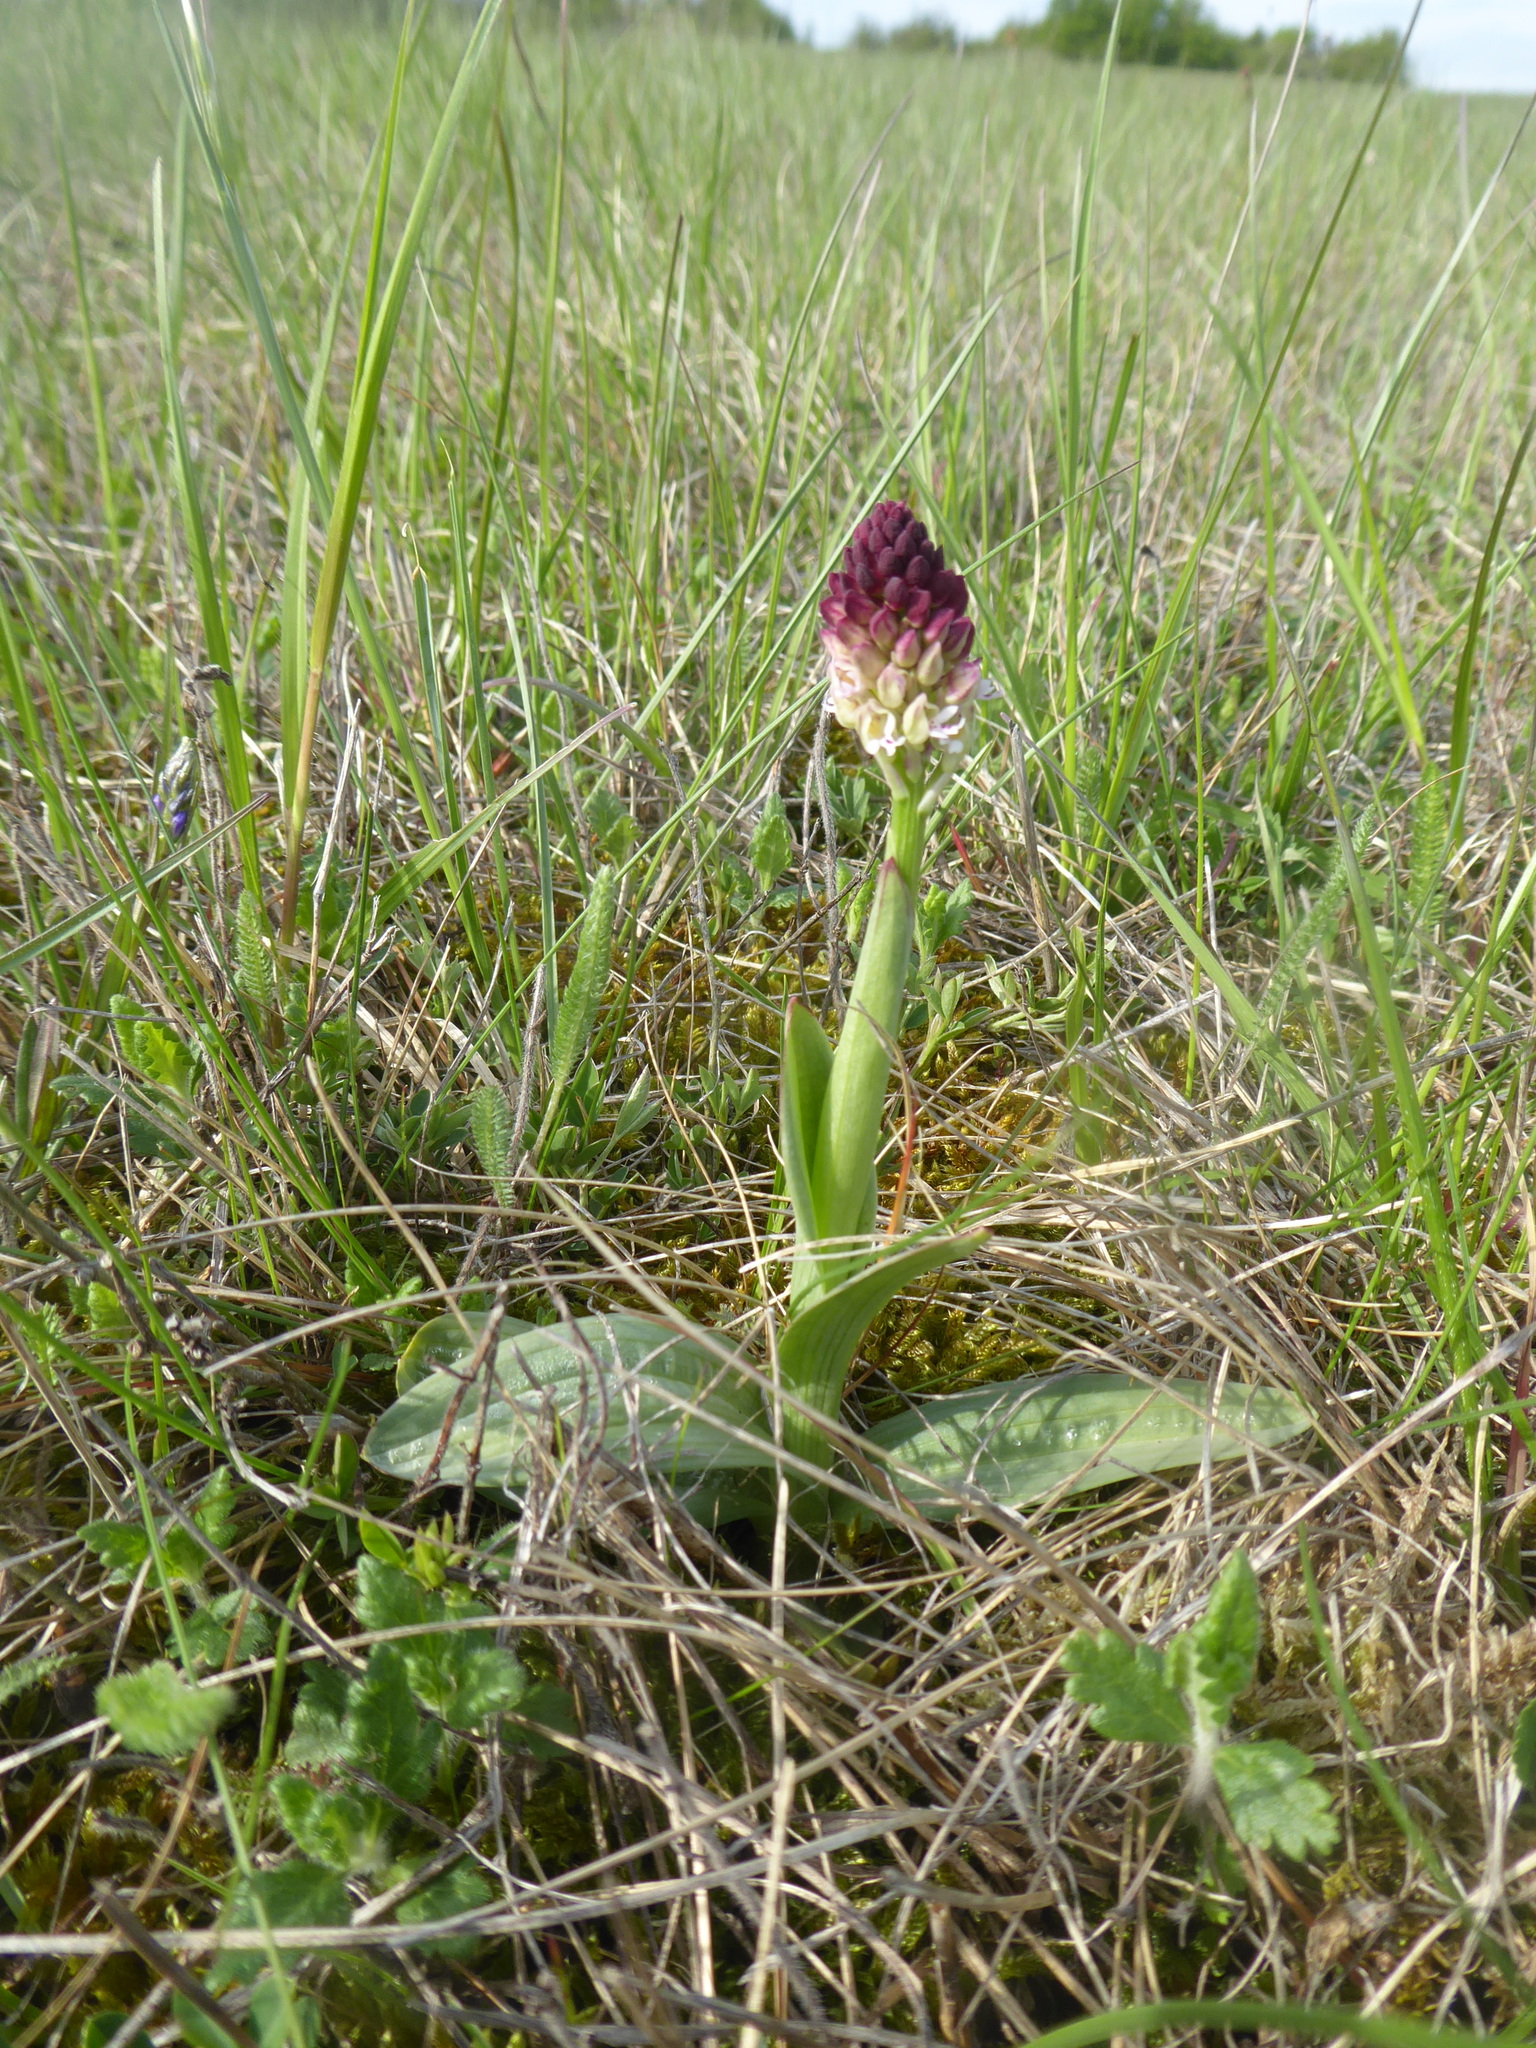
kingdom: Plantae
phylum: Tracheophyta
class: Liliopsida
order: Asparagales
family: Orchidaceae
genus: Neotinea
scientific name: Neotinea ustulata
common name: Burnt orchid
